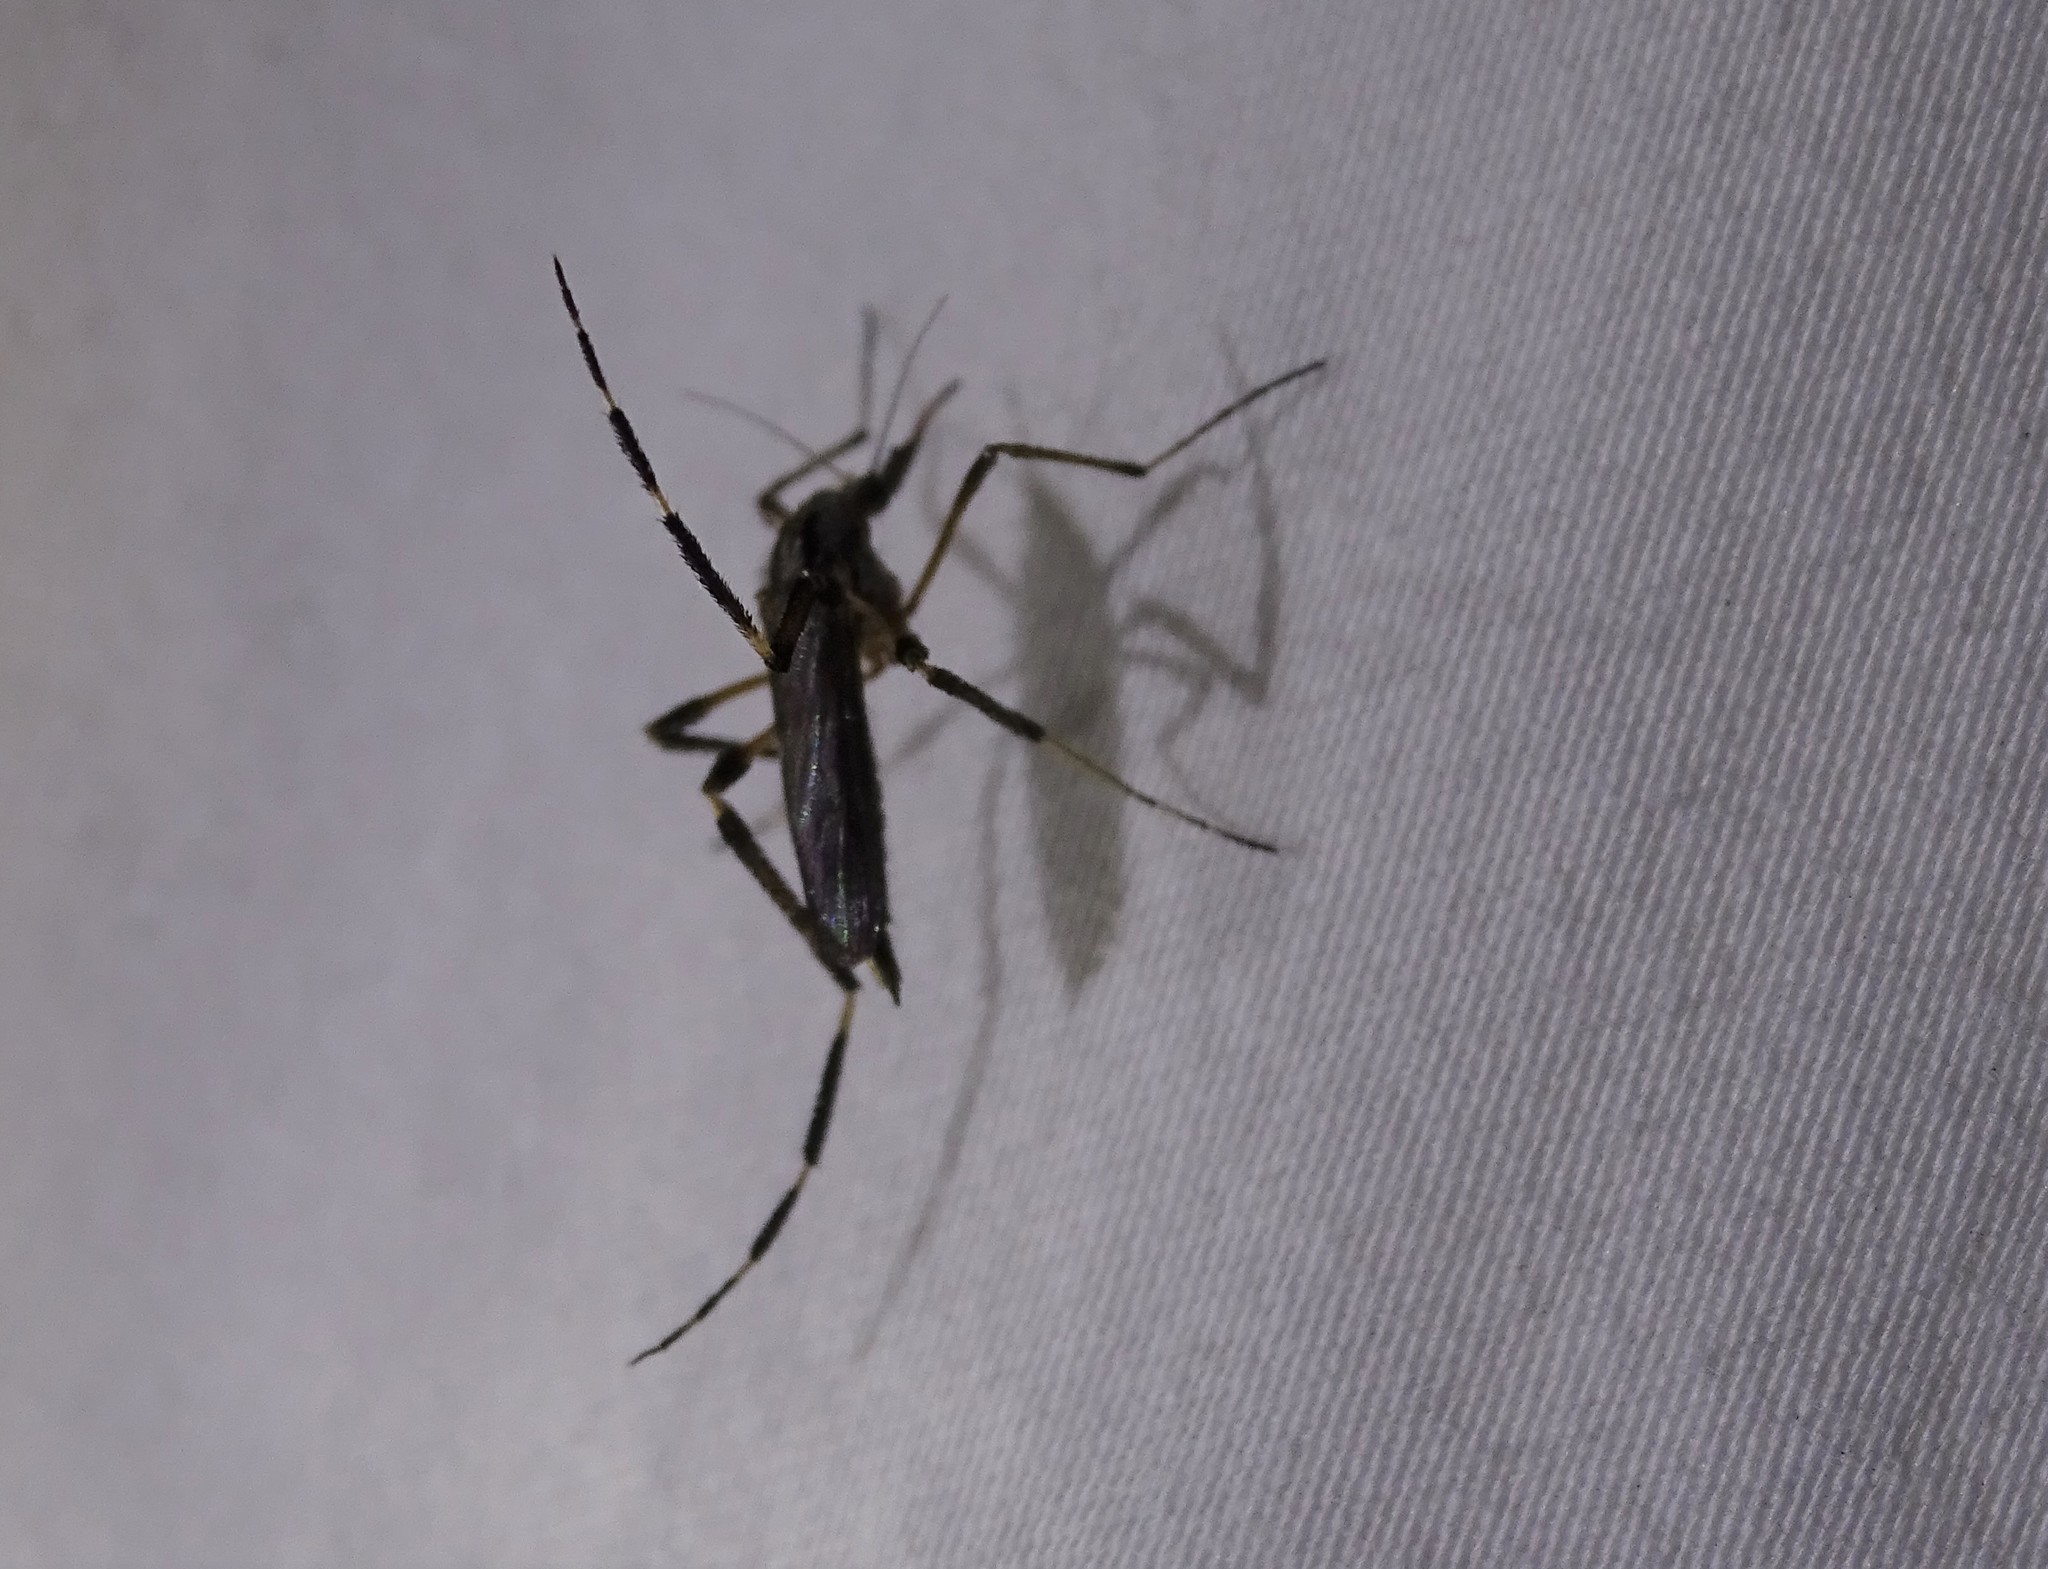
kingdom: Animalia
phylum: Arthropoda
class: Insecta
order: Diptera
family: Culicidae
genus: Psorophora
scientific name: Psorophora ciliata
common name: Gallinipper
